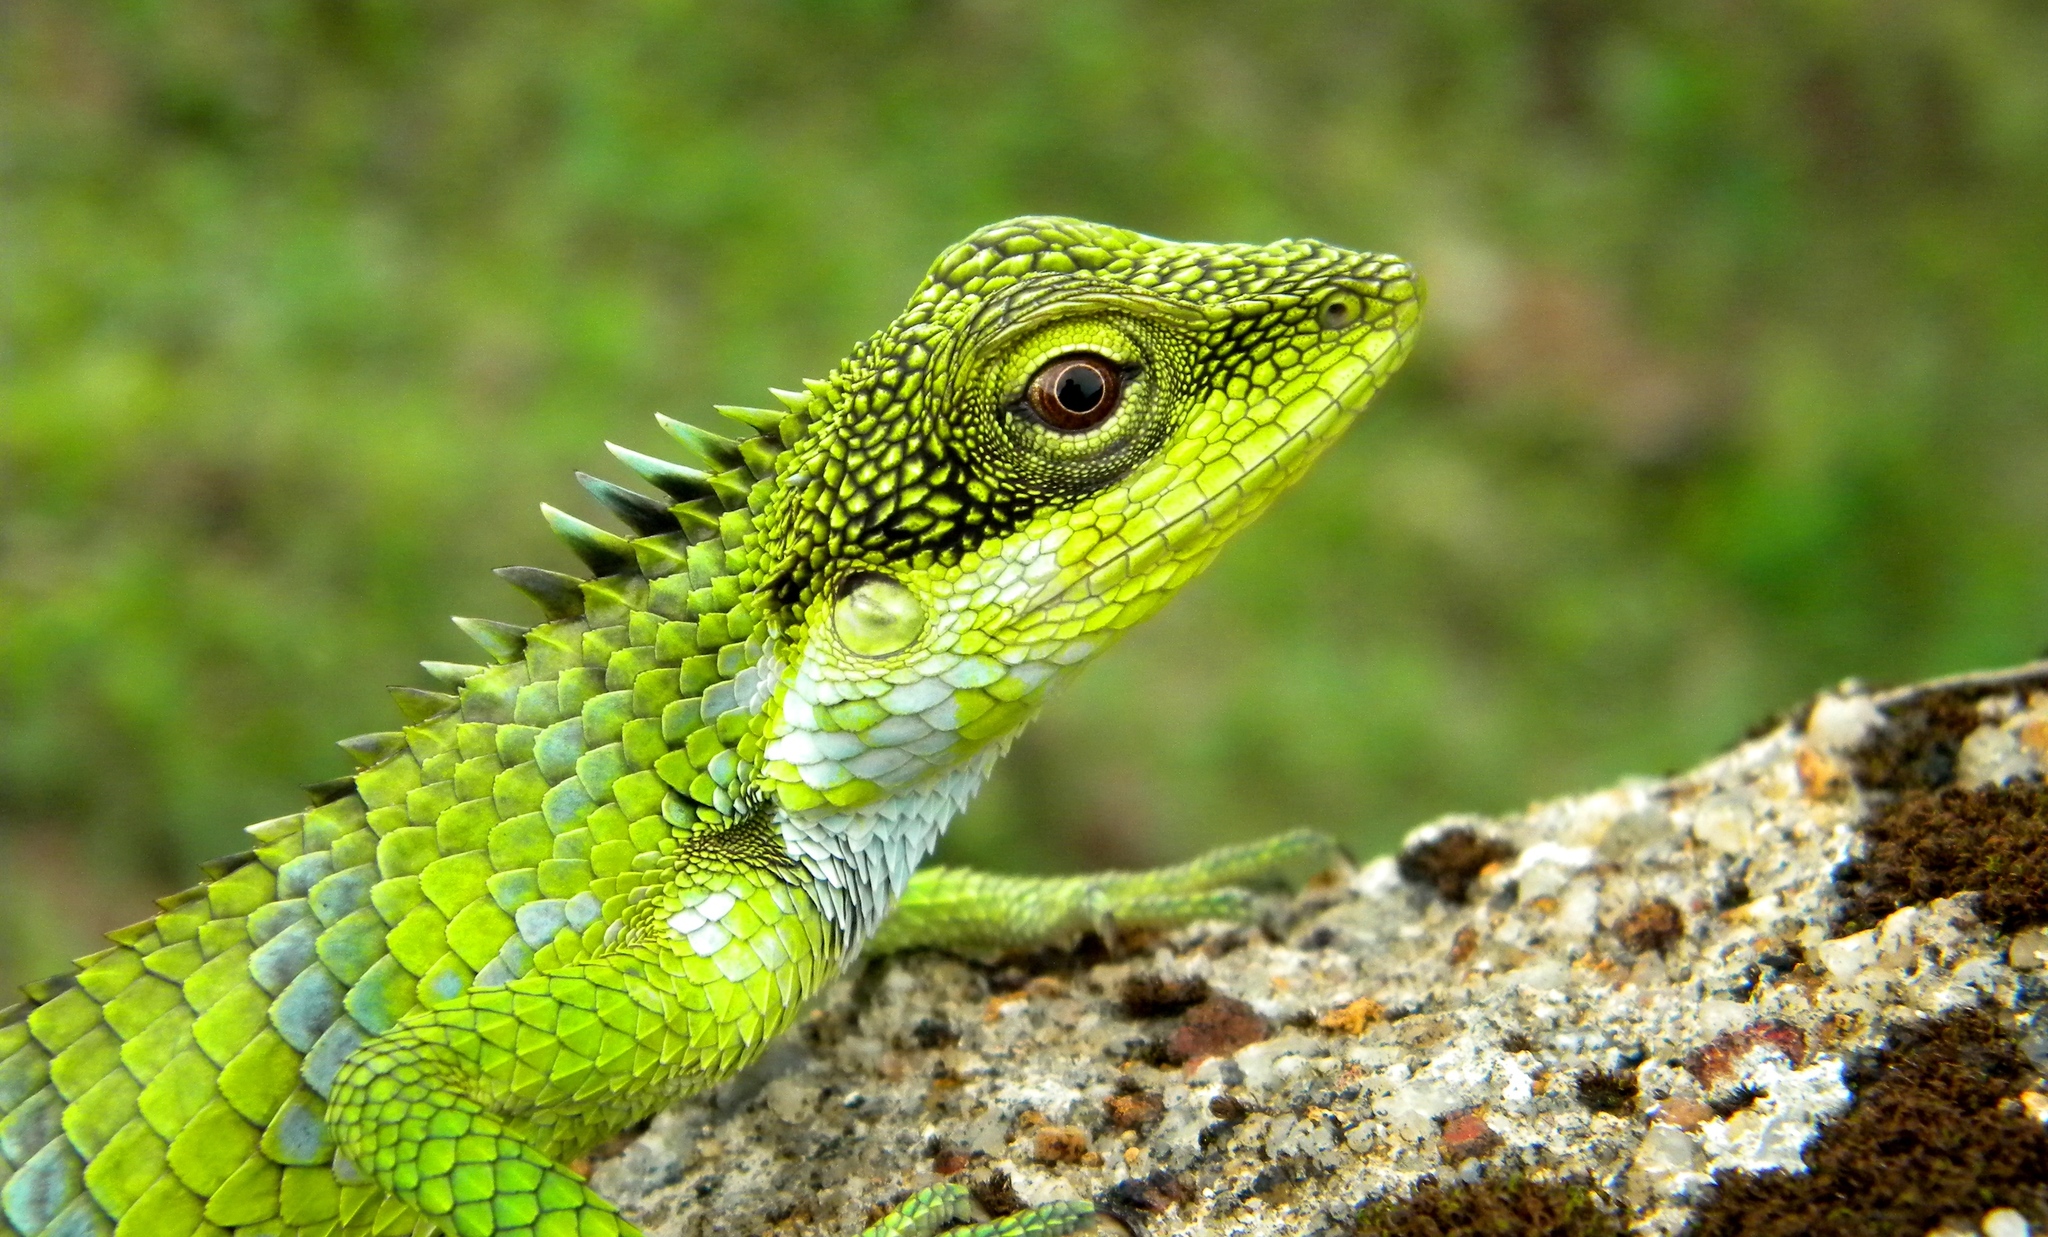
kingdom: Animalia
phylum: Chordata
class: Squamata
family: Agamidae
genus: Calotes
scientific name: Calotes grandisquamis
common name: Big scaled variable lizard
